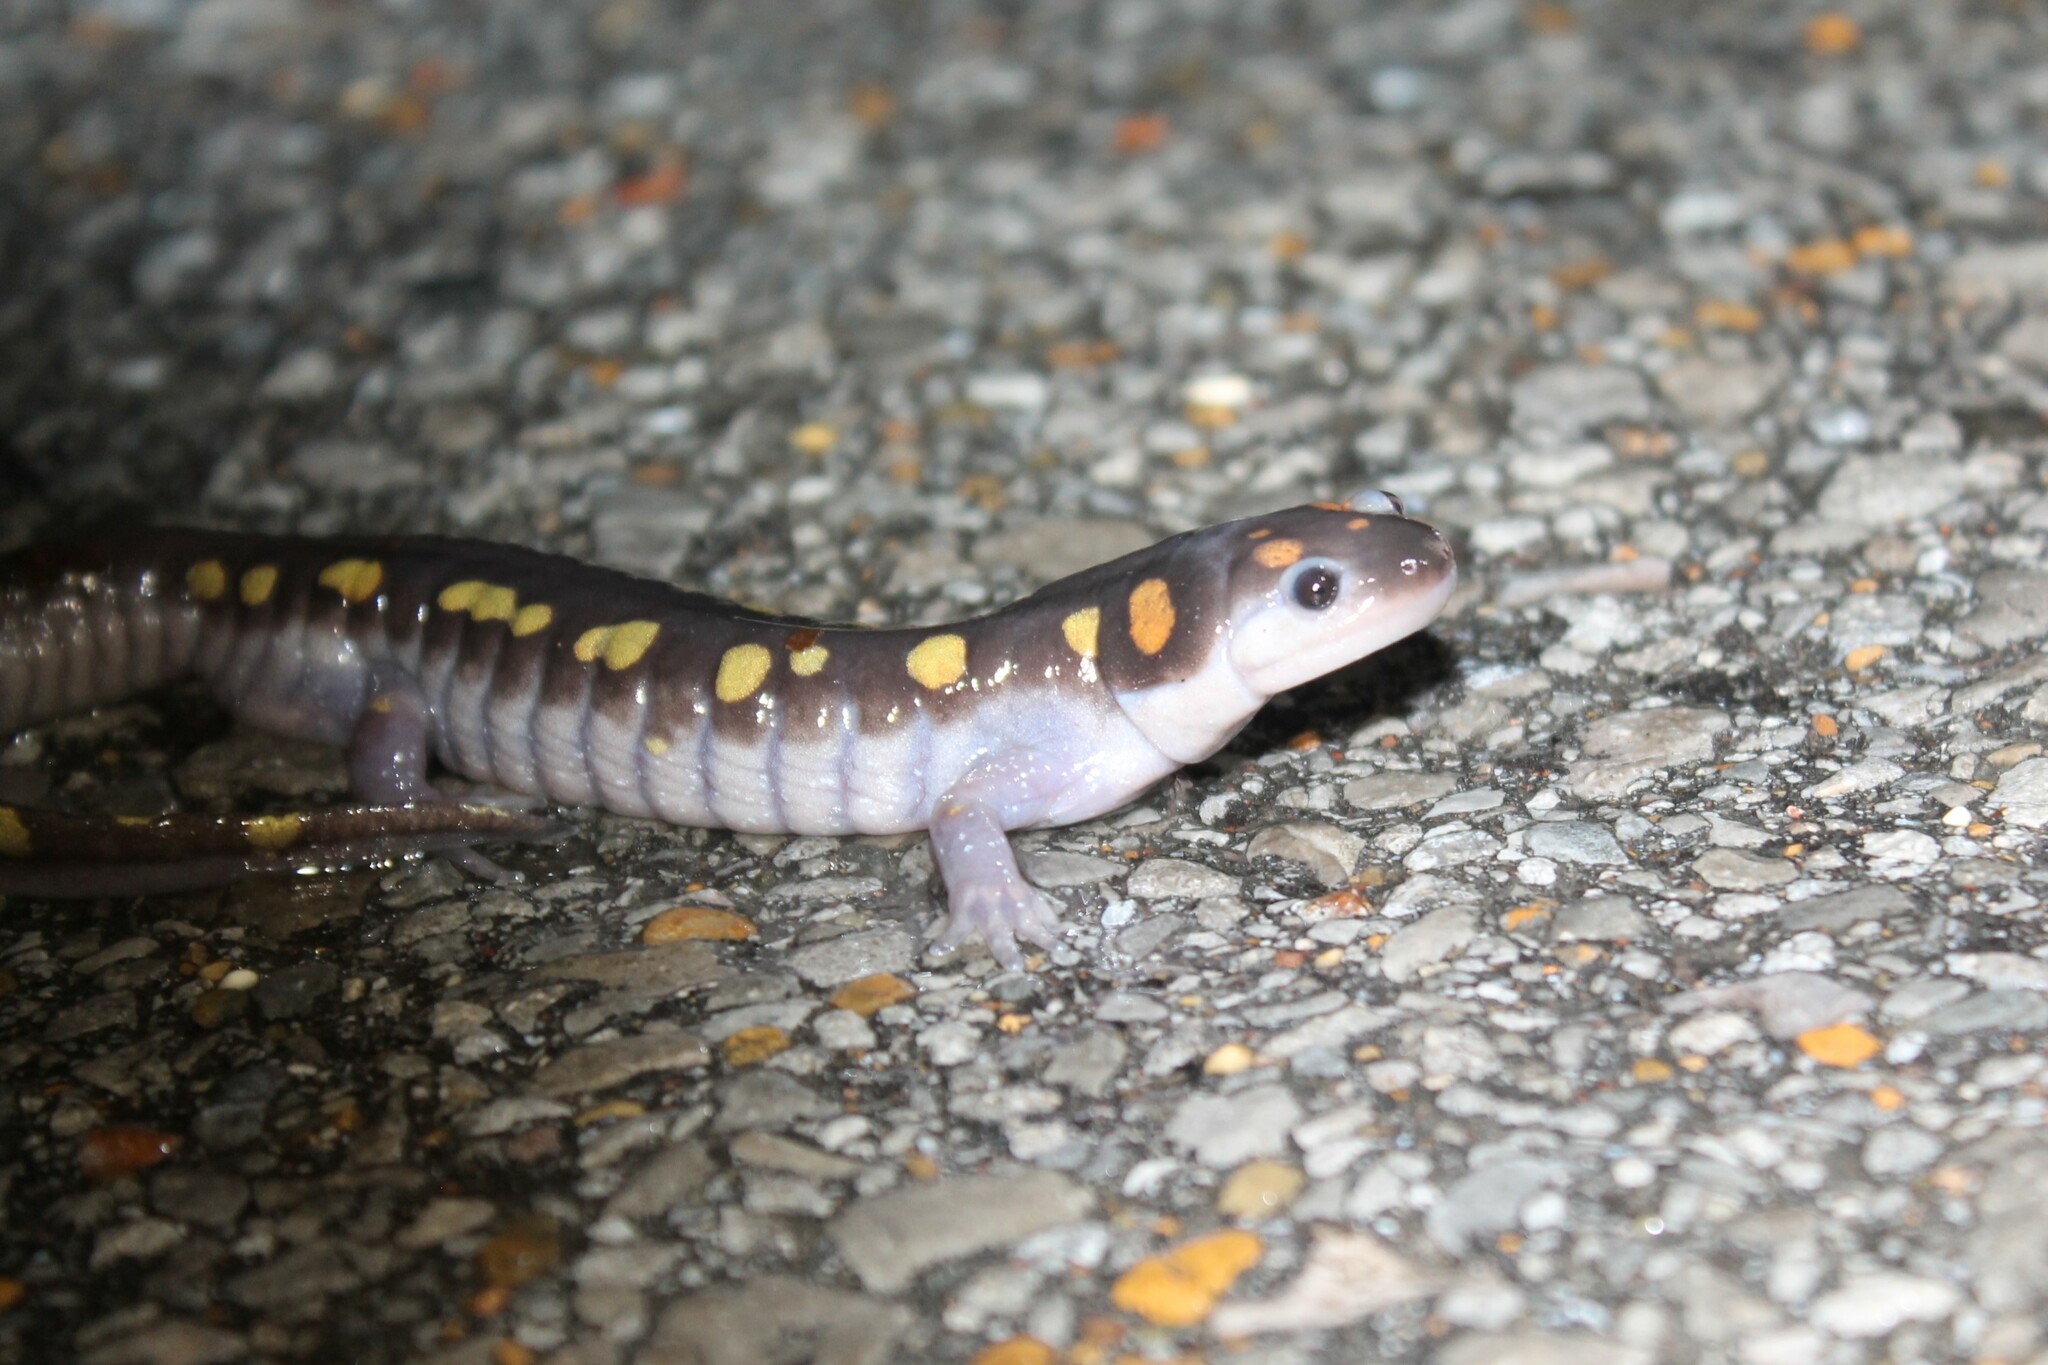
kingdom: Animalia
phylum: Chordata
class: Amphibia
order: Caudata
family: Ambystomatidae
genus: Ambystoma
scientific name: Ambystoma maculatum
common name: Spotted salamander
